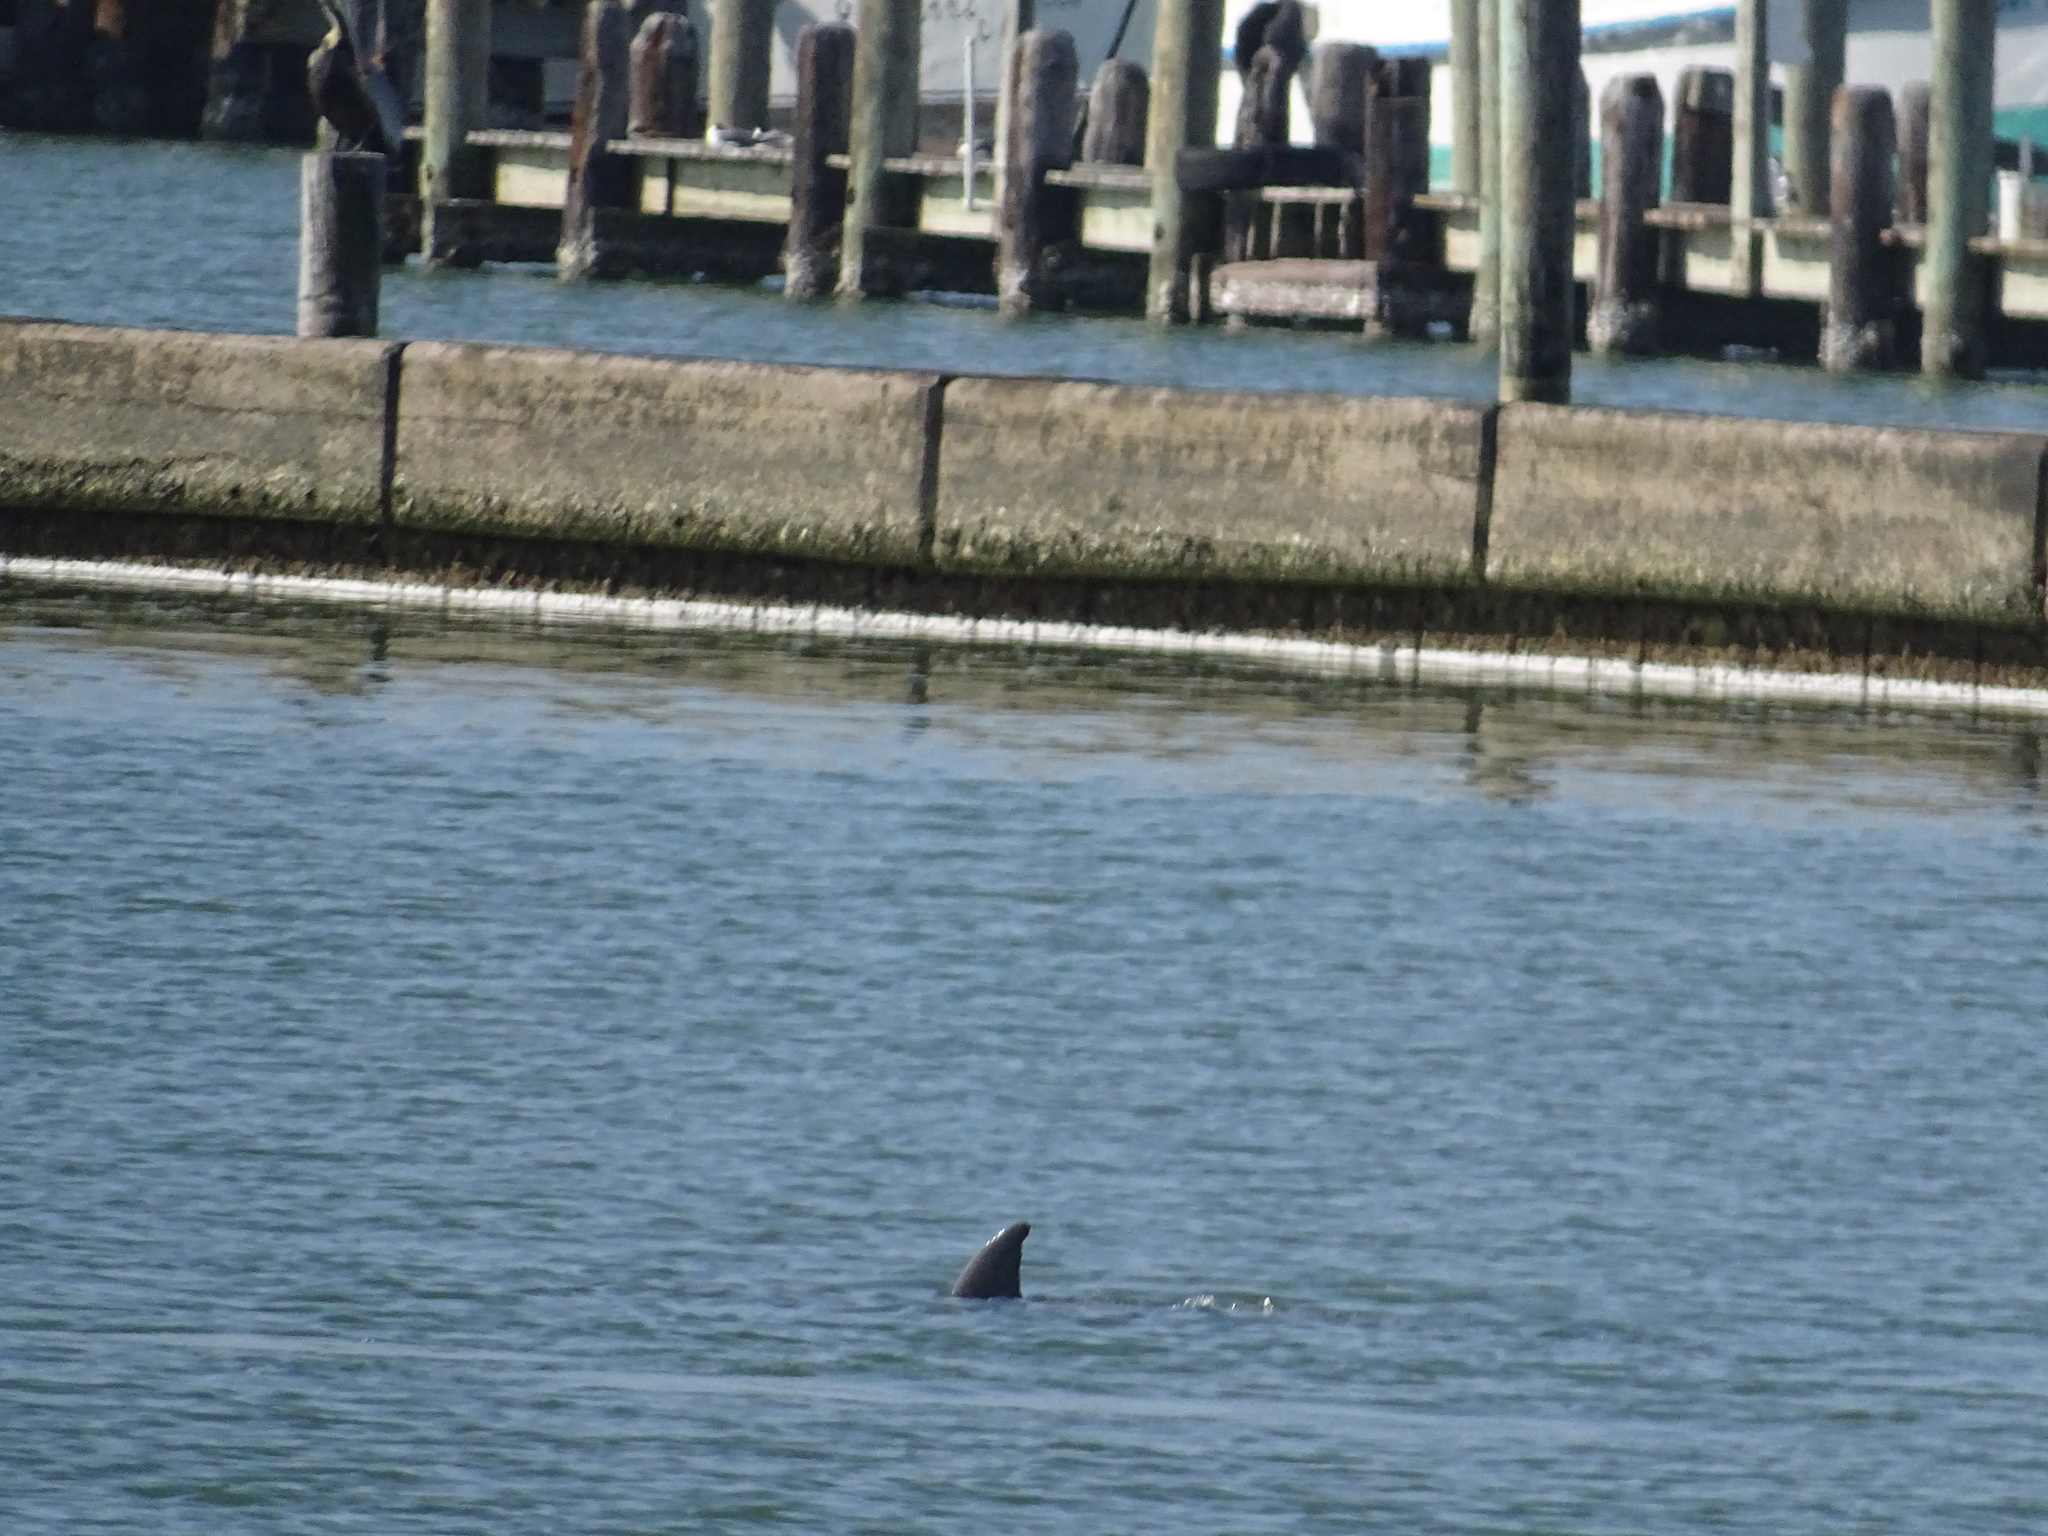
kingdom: Animalia
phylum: Chordata
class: Mammalia
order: Cetacea
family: Delphinidae
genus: Tursiops
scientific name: Tursiops truncatus
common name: Bottlenose dolphin
